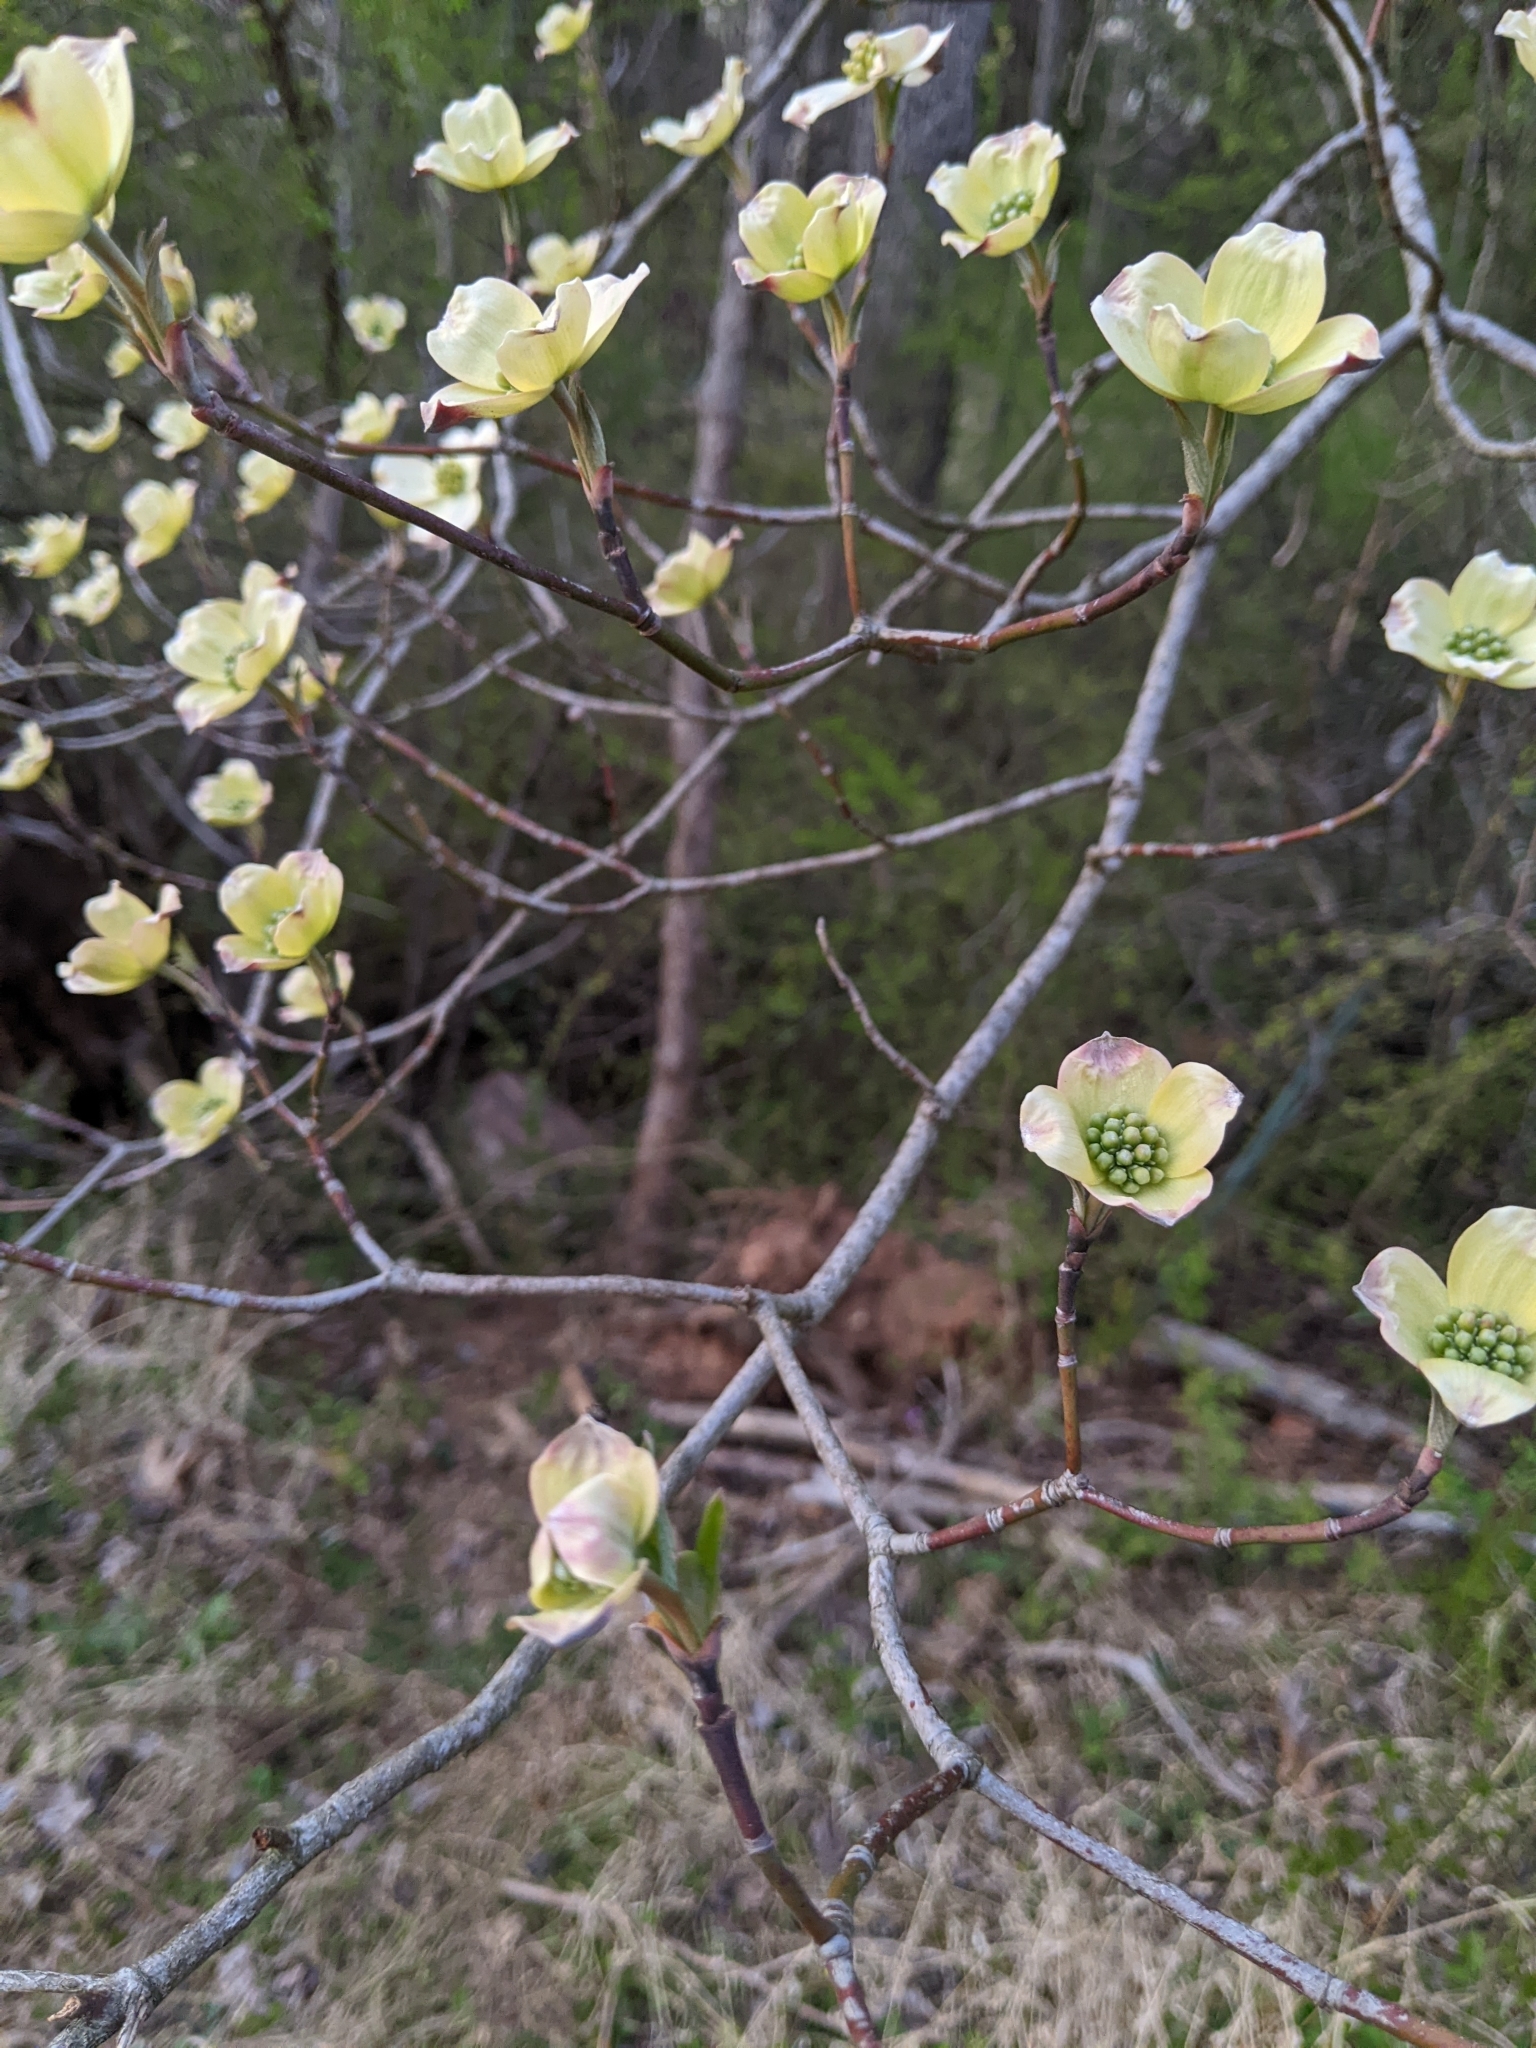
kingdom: Plantae
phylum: Tracheophyta
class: Magnoliopsida
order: Cornales
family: Cornaceae
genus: Cornus
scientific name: Cornus florida
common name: Flowering dogwood
